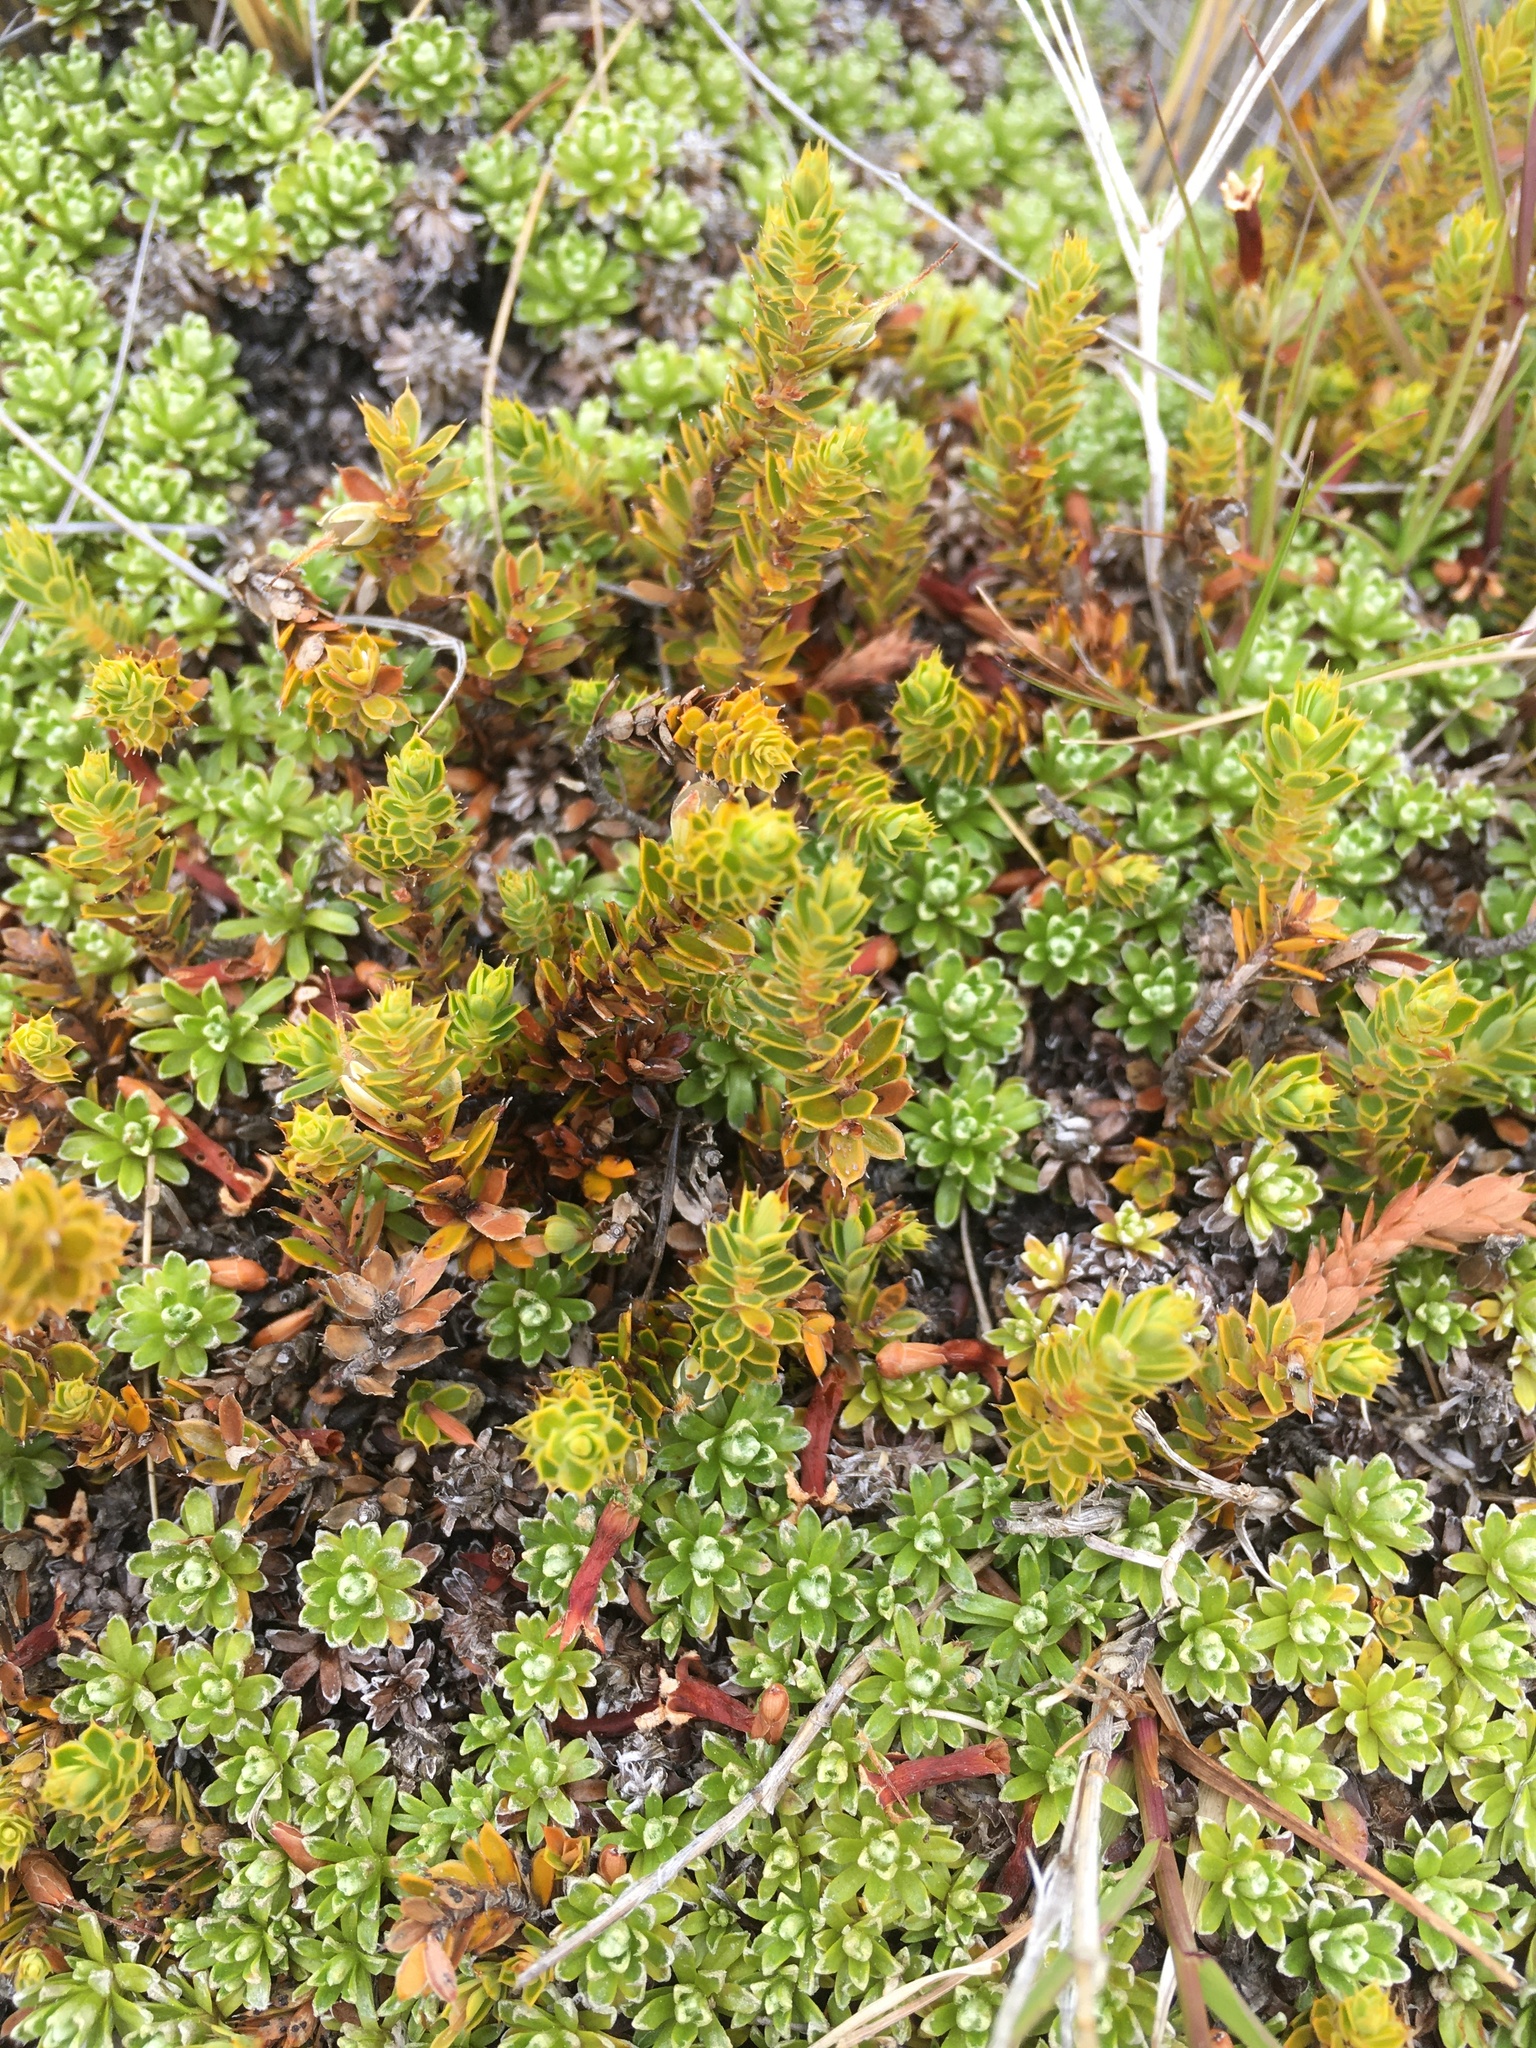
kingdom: Plantae
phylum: Tracheophyta
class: Magnoliopsida
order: Ericales
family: Ericaceae
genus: Styphelia
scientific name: Styphelia nesophila
